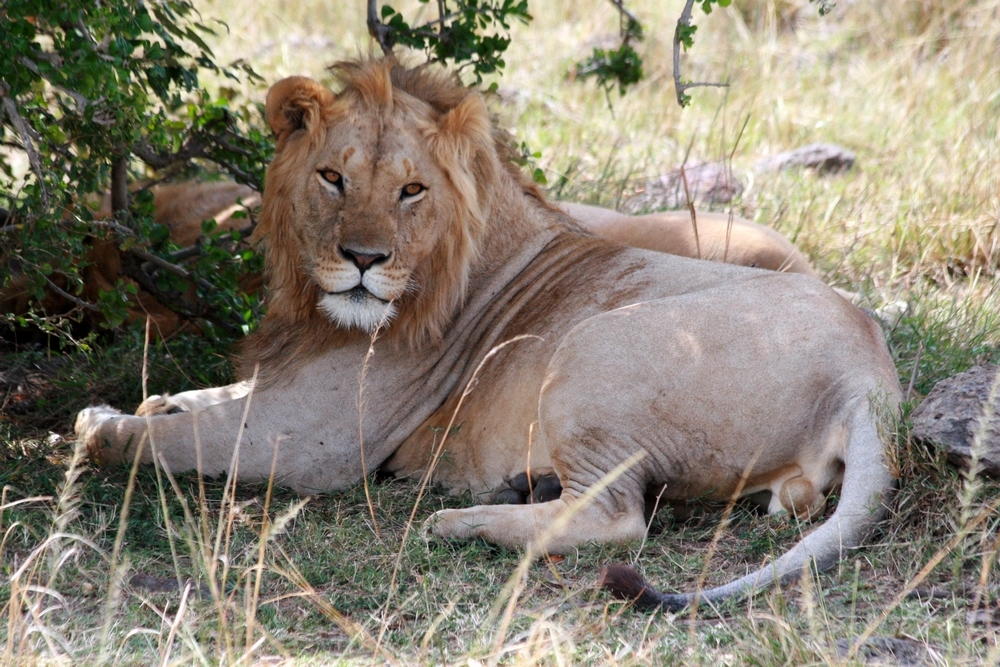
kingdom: Animalia
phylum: Chordata
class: Mammalia
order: Carnivora
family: Felidae
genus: Panthera
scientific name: Panthera leo
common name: Lion
